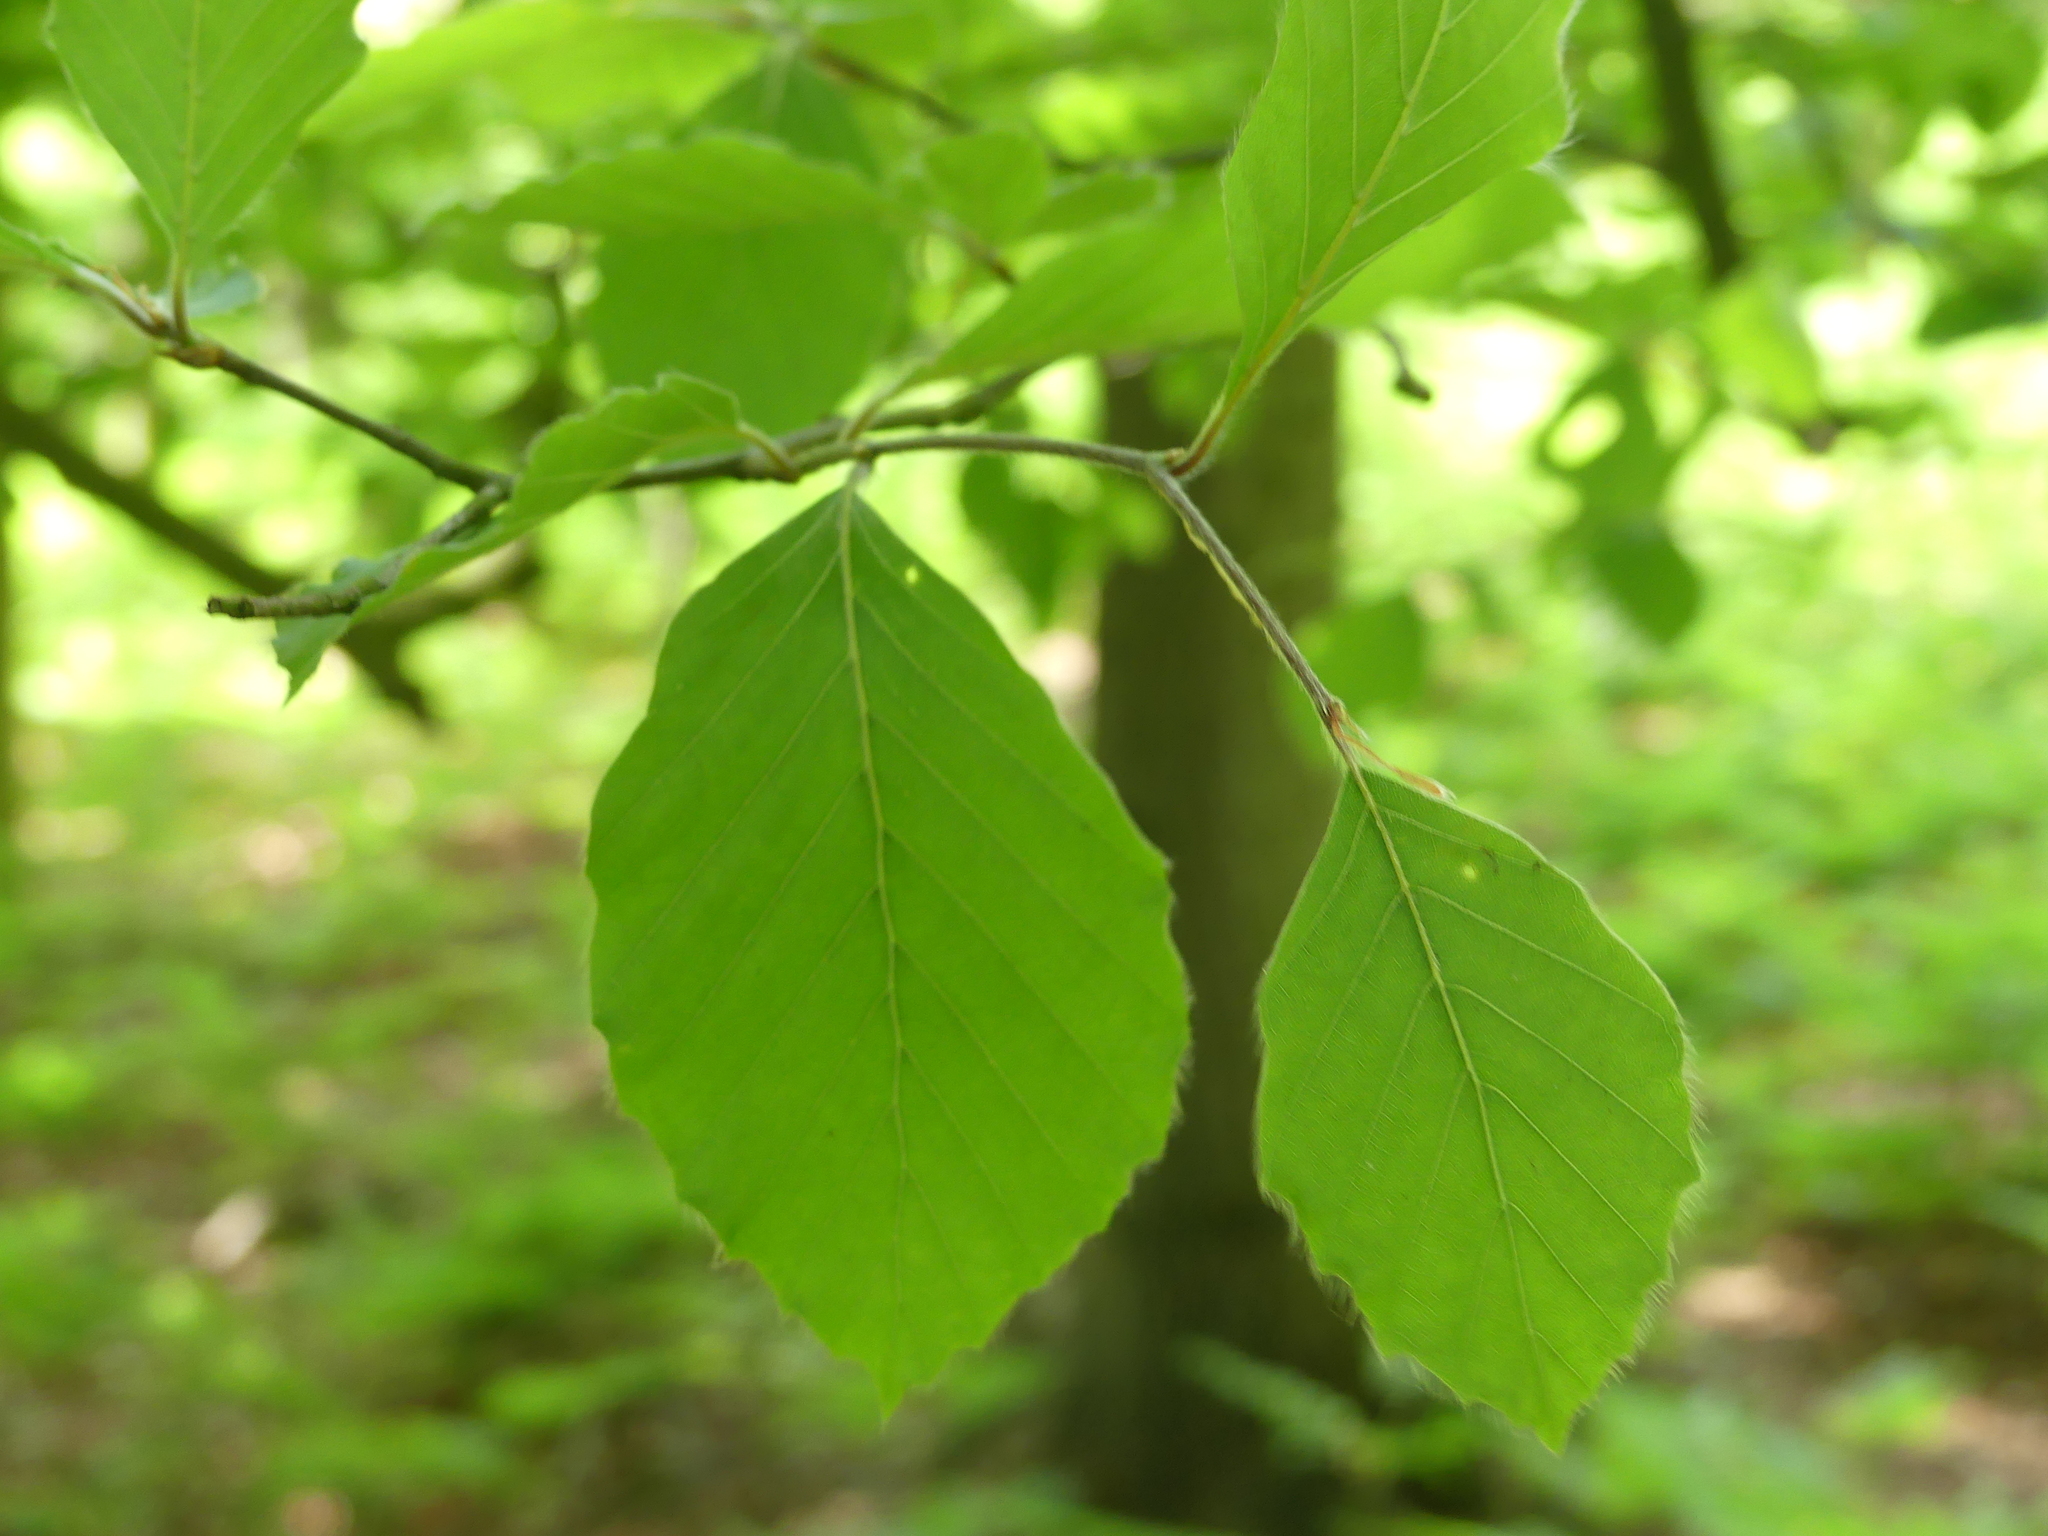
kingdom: Plantae
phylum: Tracheophyta
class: Magnoliopsida
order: Fagales
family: Fagaceae
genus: Fagus
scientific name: Fagus sylvatica
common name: Beech
